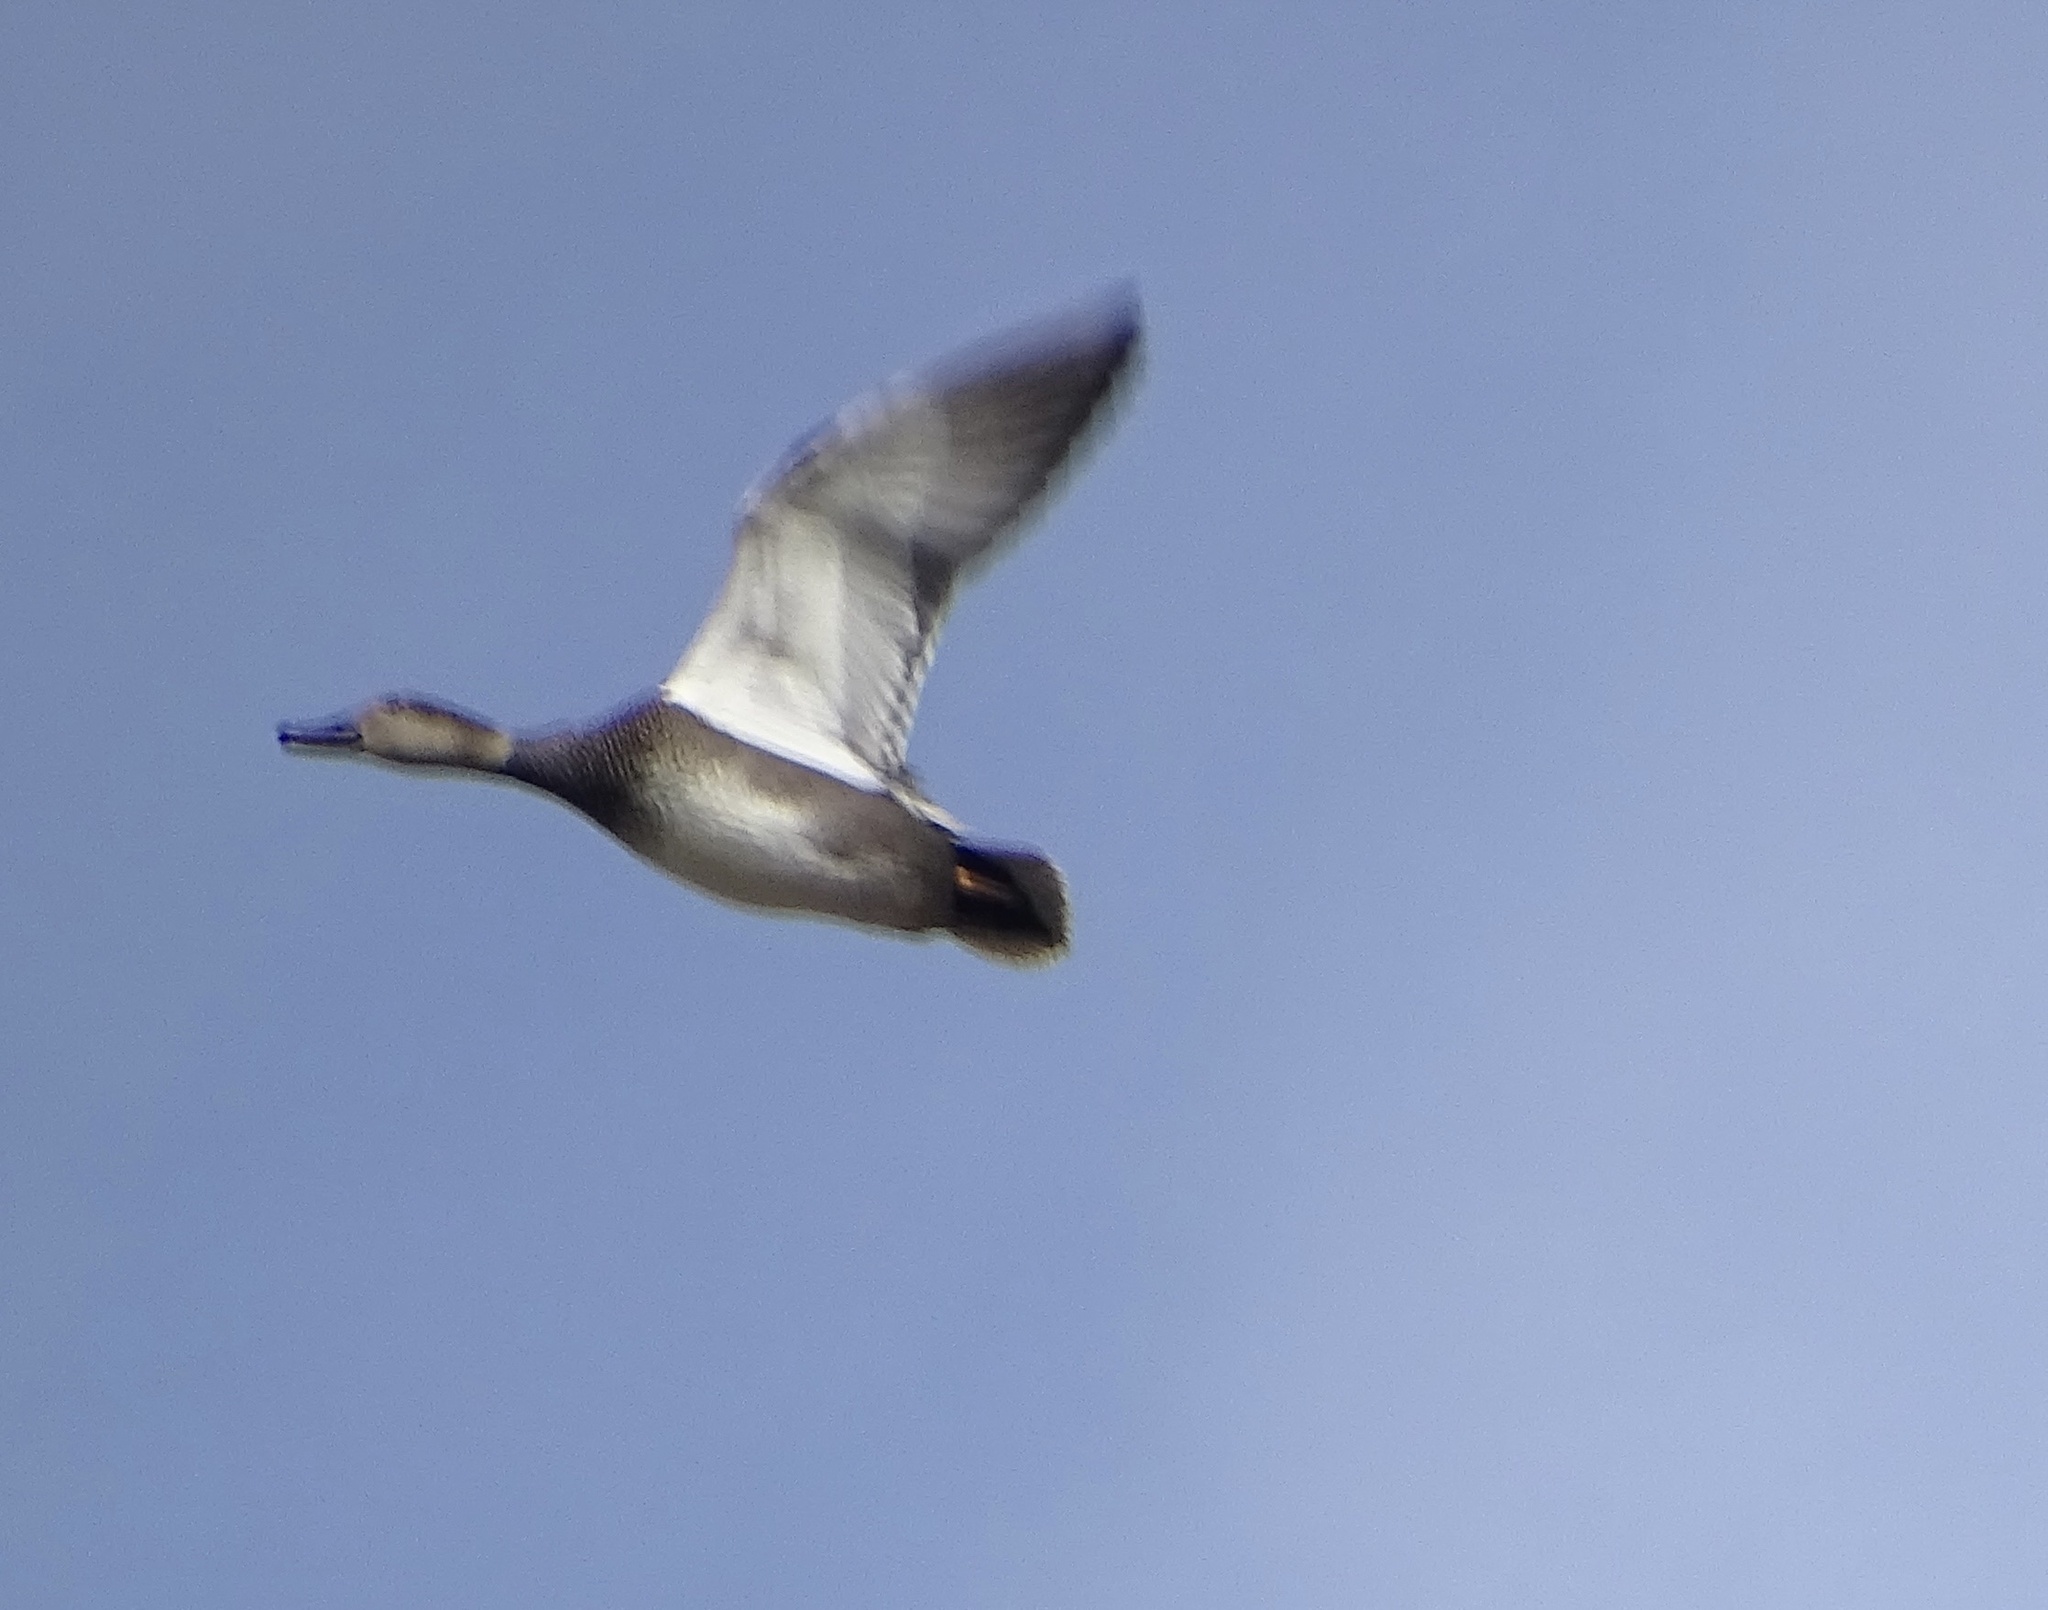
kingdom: Animalia
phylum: Chordata
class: Aves
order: Anseriformes
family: Anatidae
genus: Mareca
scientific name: Mareca strepera
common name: Gadwall
